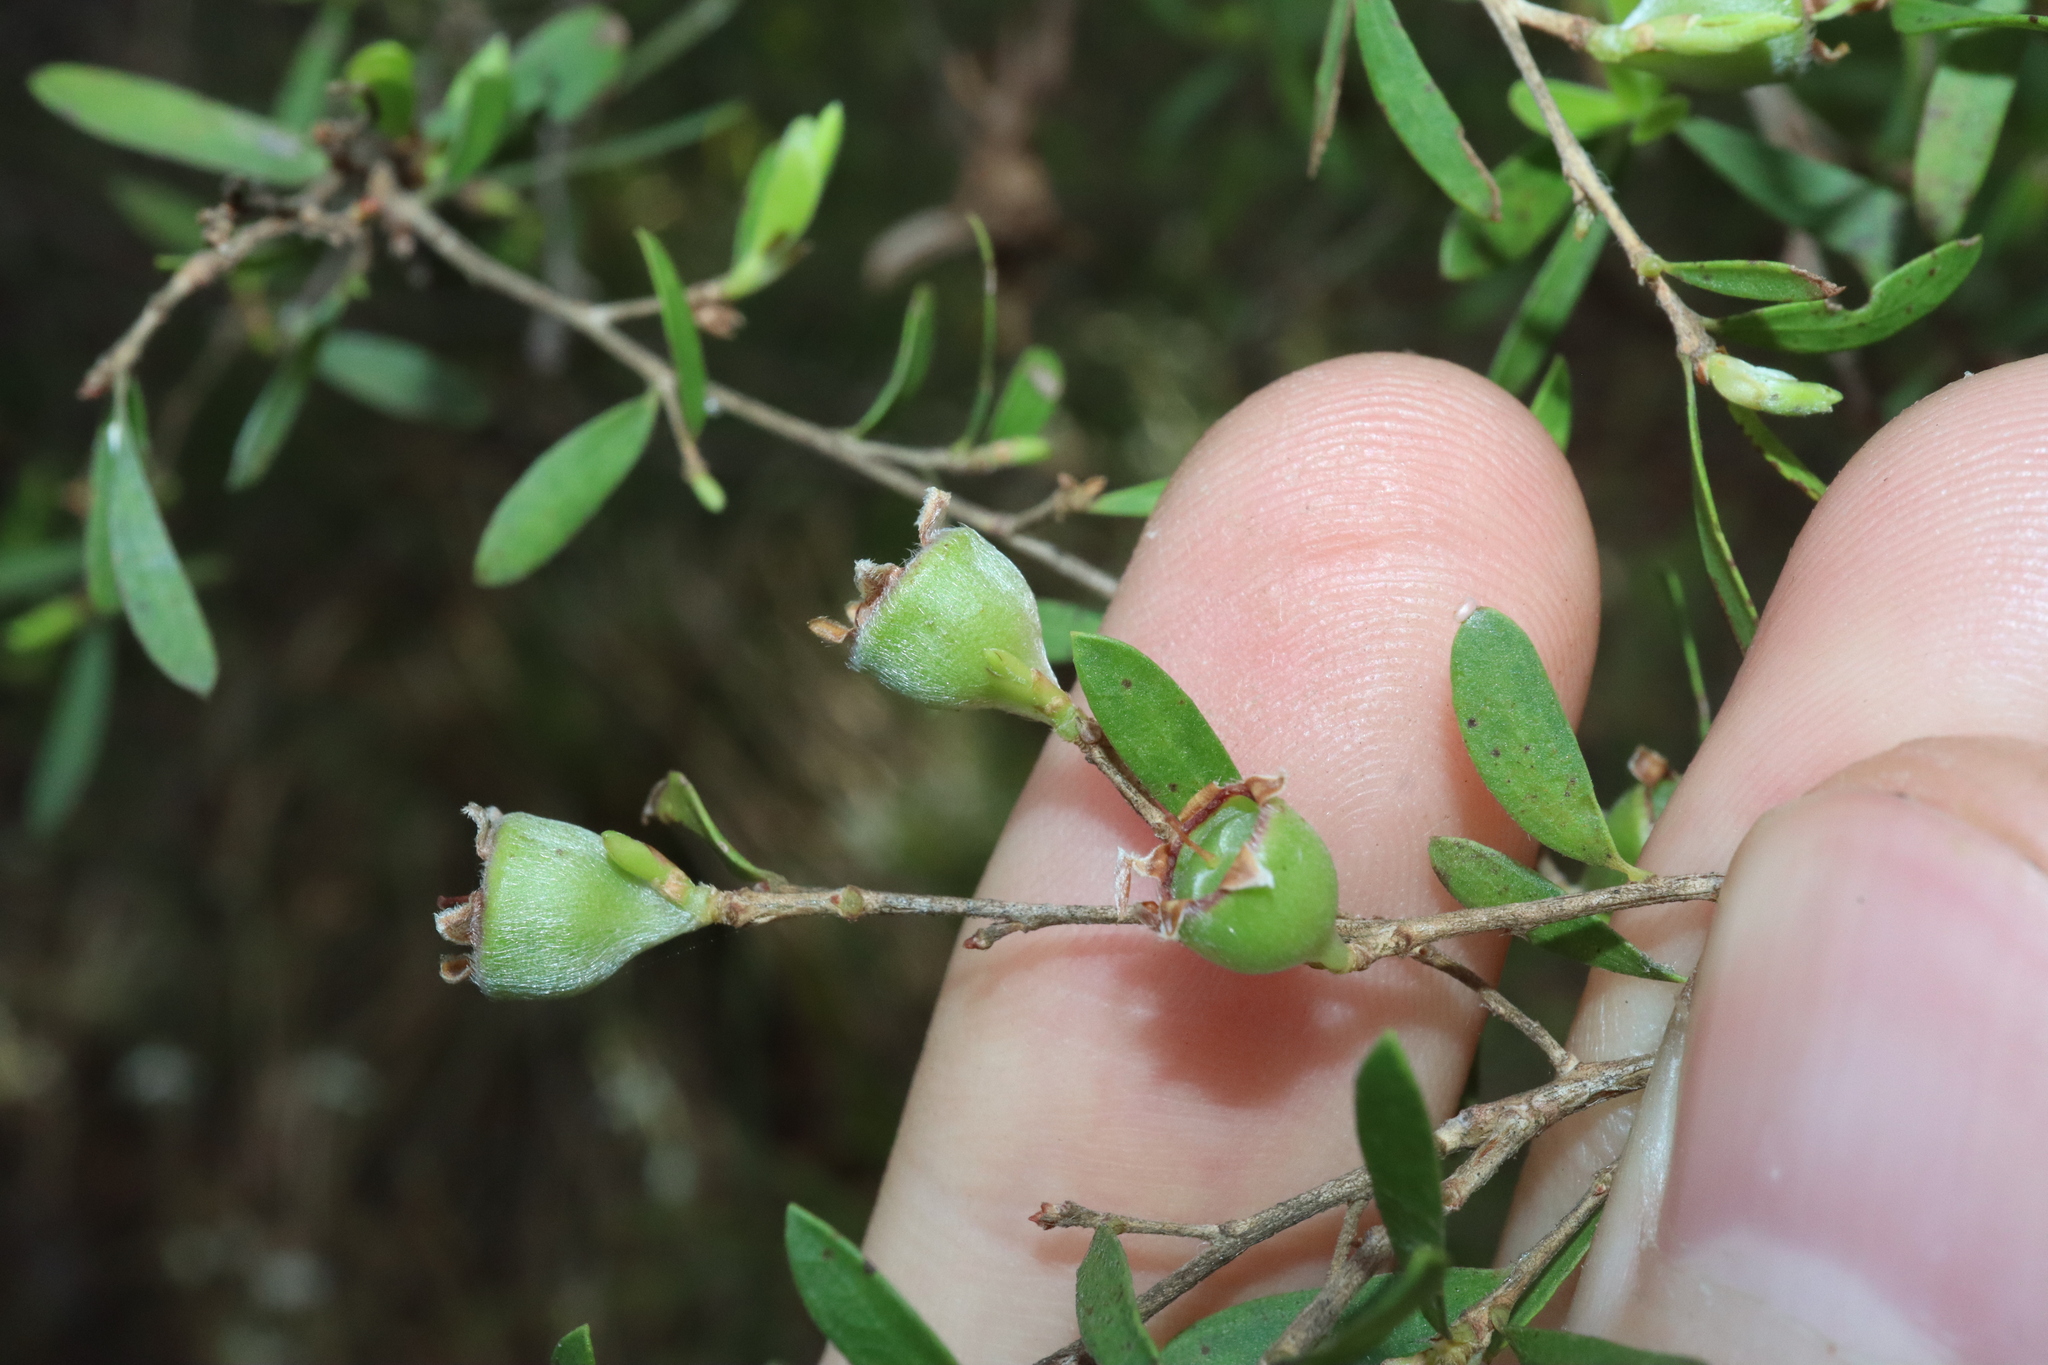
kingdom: Plantae
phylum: Tracheophyta
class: Magnoliopsida
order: Myrtales
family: Myrtaceae
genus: Leptospermum
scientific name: Leptospermum trinervium
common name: Flaky-barked tea-tree
